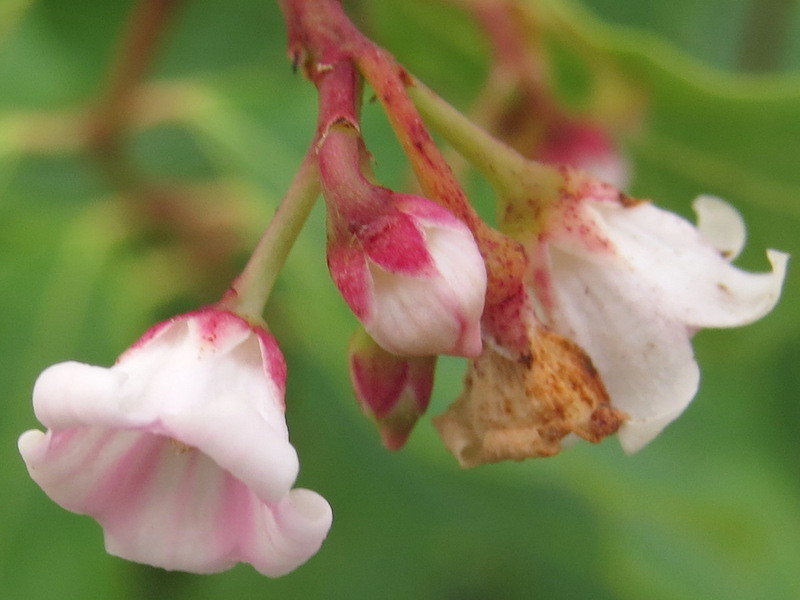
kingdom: Plantae
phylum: Tracheophyta
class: Magnoliopsida
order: Gentianales
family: Apocynaceae
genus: Apocynum
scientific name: Apocynum androsaemifolium
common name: Spreading dogbane
